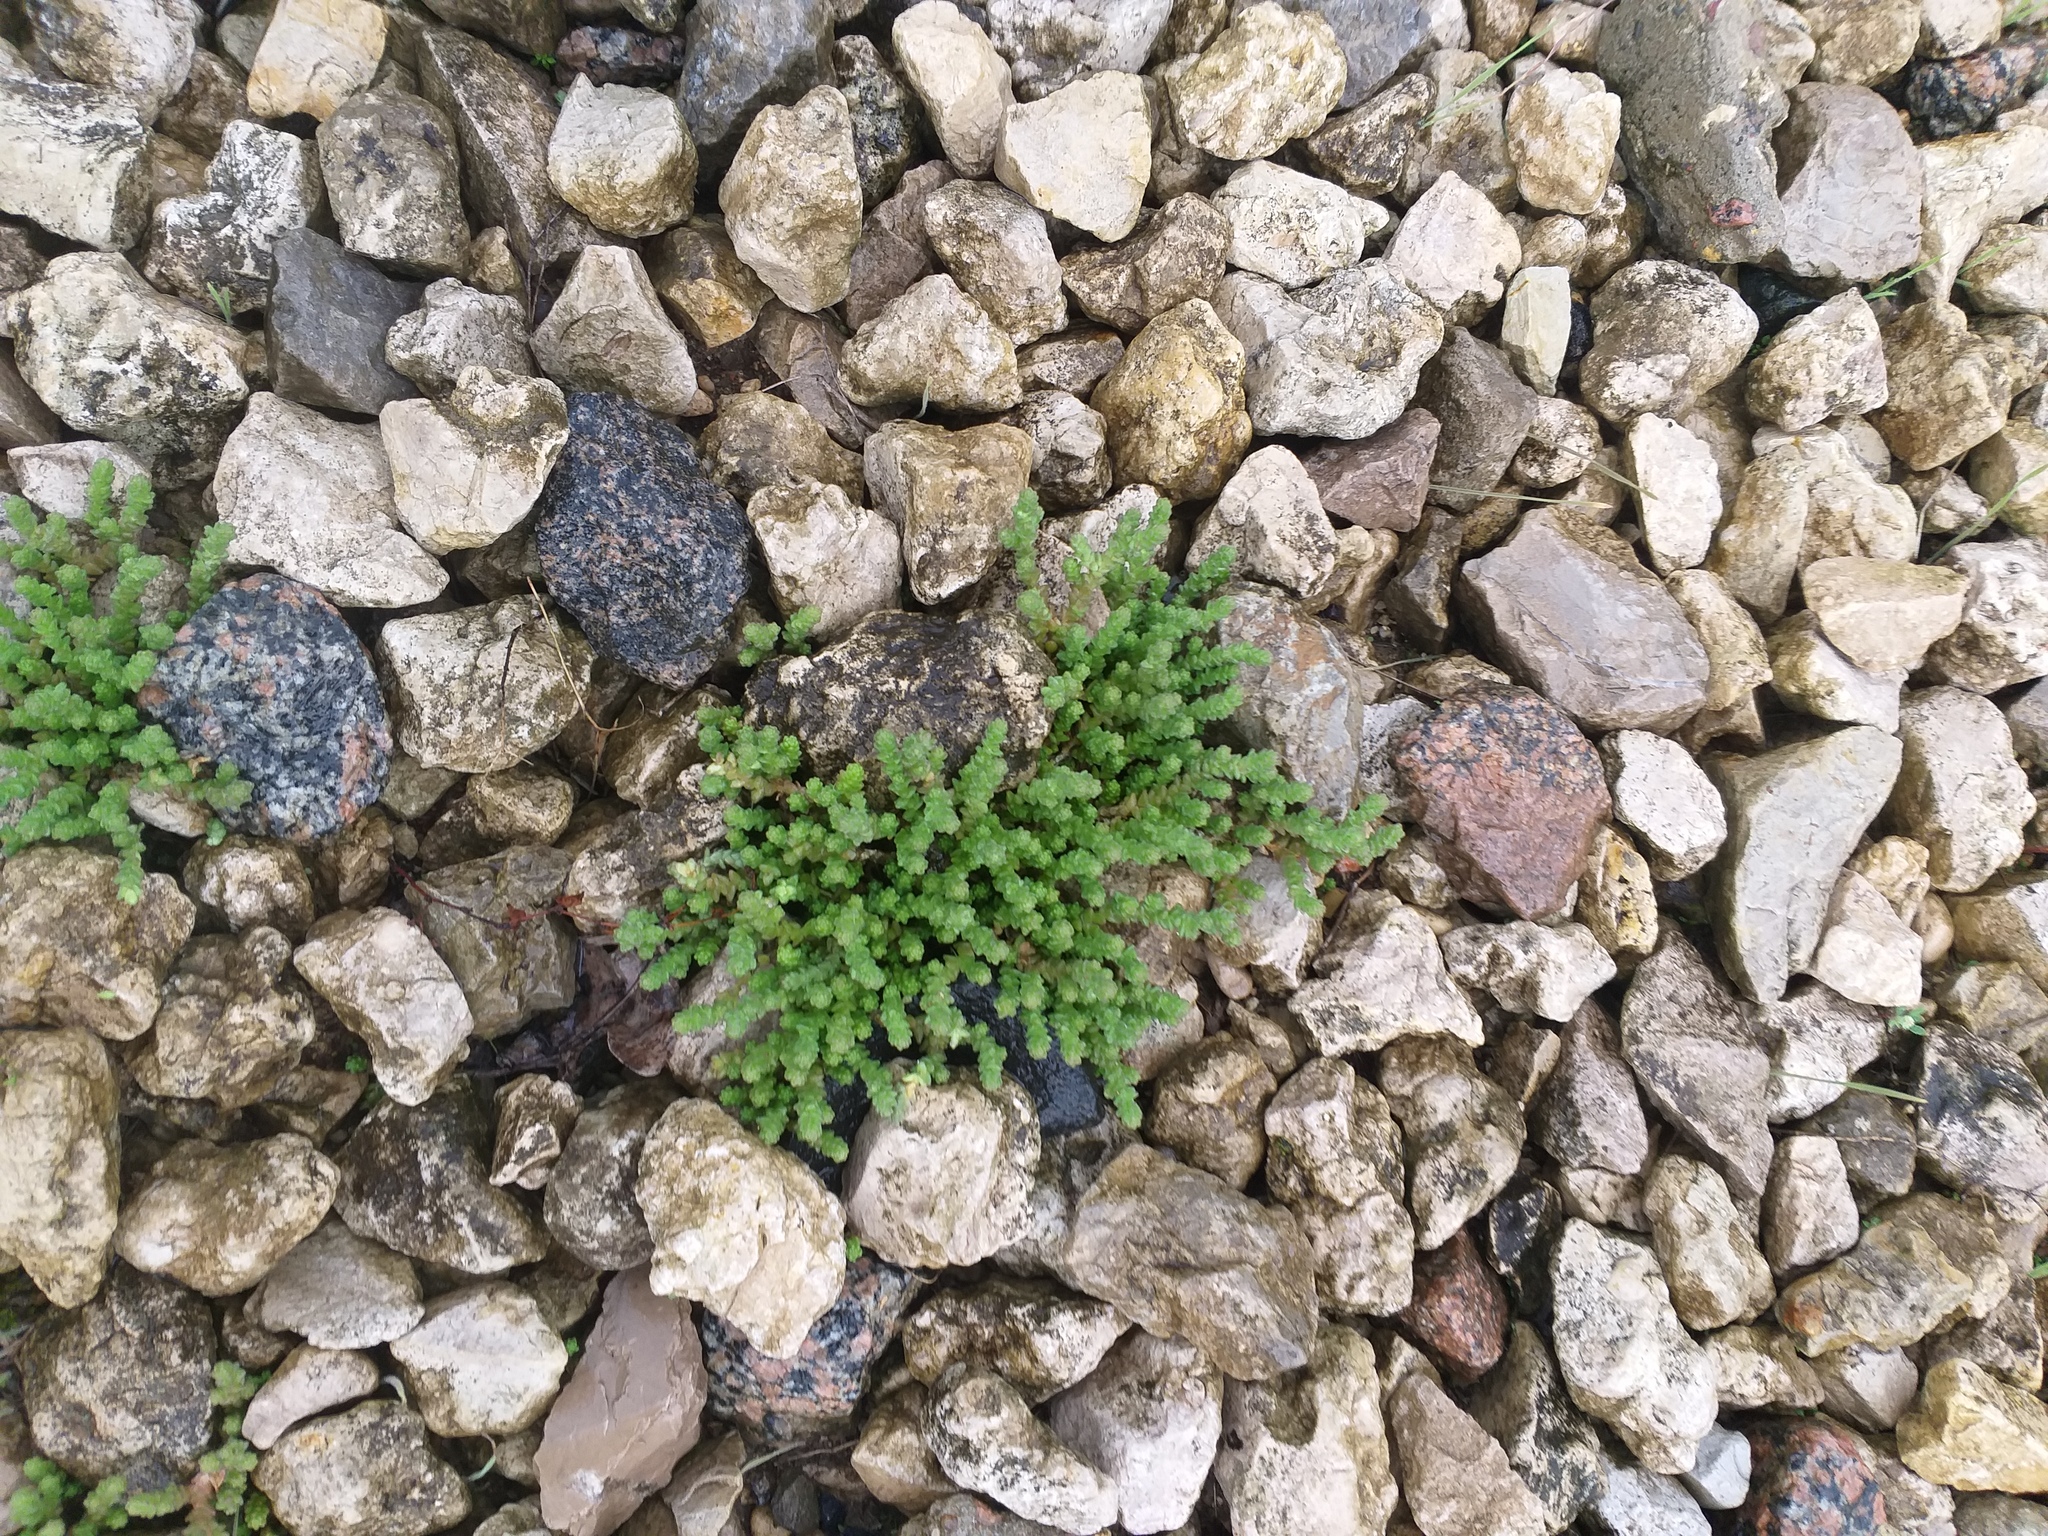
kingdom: Plantae
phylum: Tracheophyta
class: Magnoliopsida
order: Saxifragales
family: Crassulaceae
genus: Sedum
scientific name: Sedum acre
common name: Biting stonecrop
